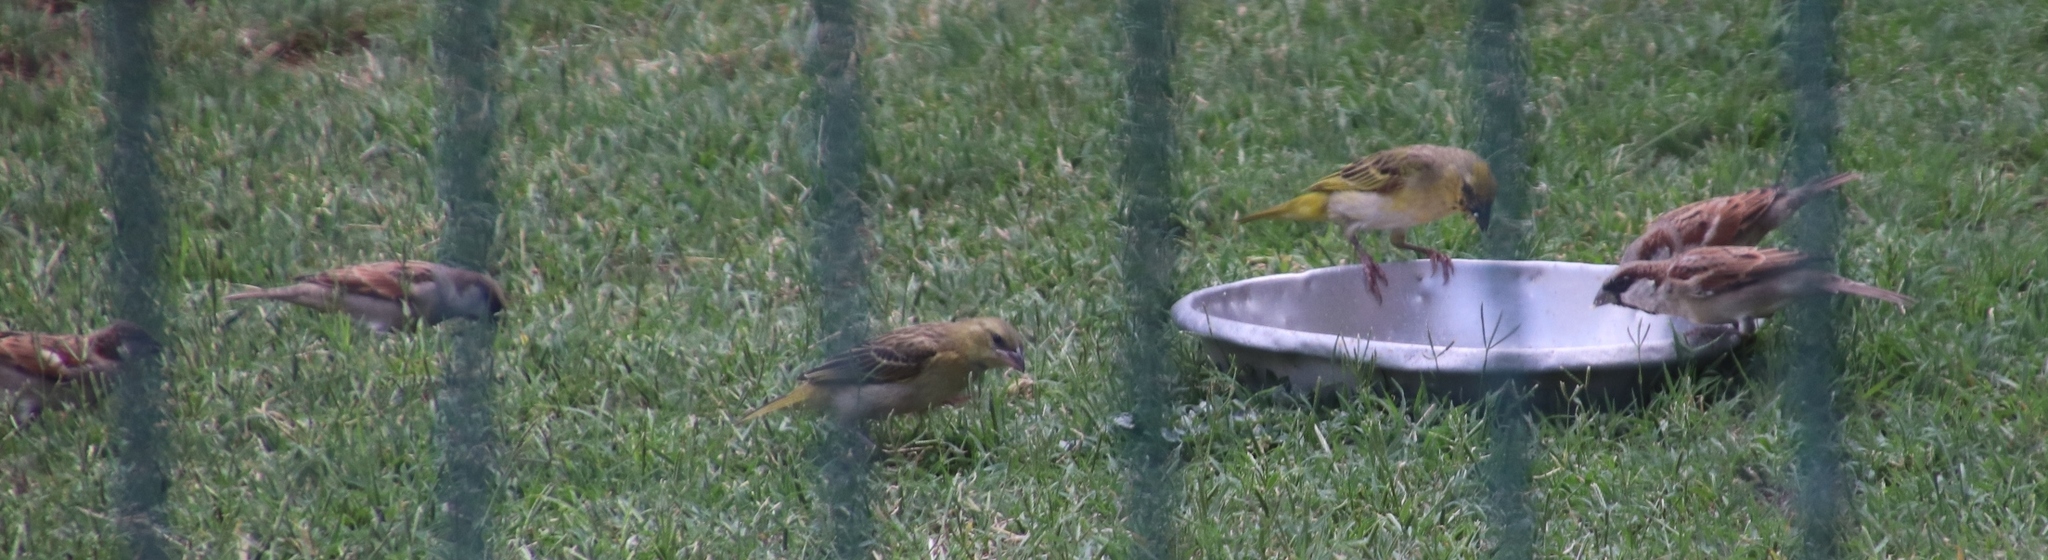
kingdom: Animalia
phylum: Chordata
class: Aves
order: Passeriformes
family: Ploceidae
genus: Ploceus
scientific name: Ploceus velatus
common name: Southern masked weaver
